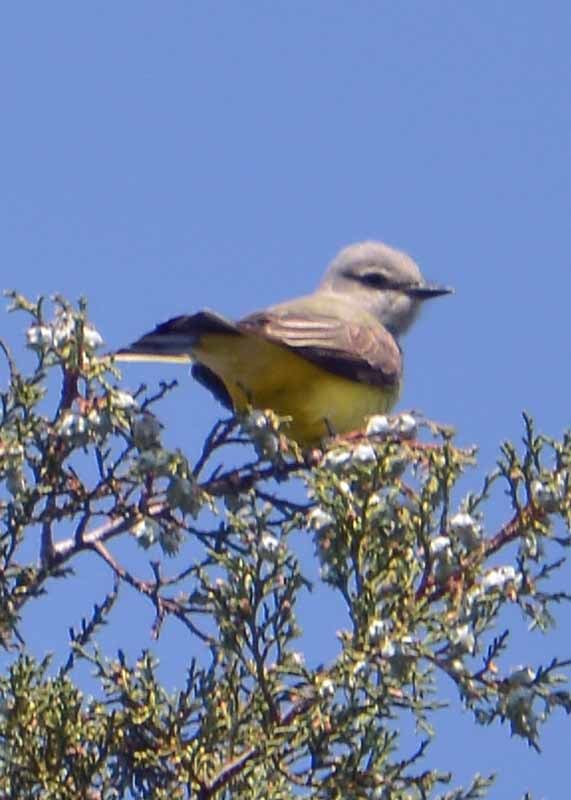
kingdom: Animalia
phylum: Chordata
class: Aves
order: Passeriformes
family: Tyrannidae
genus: Tyrannus
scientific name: Tyrannus verticalis
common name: Western kingbird
